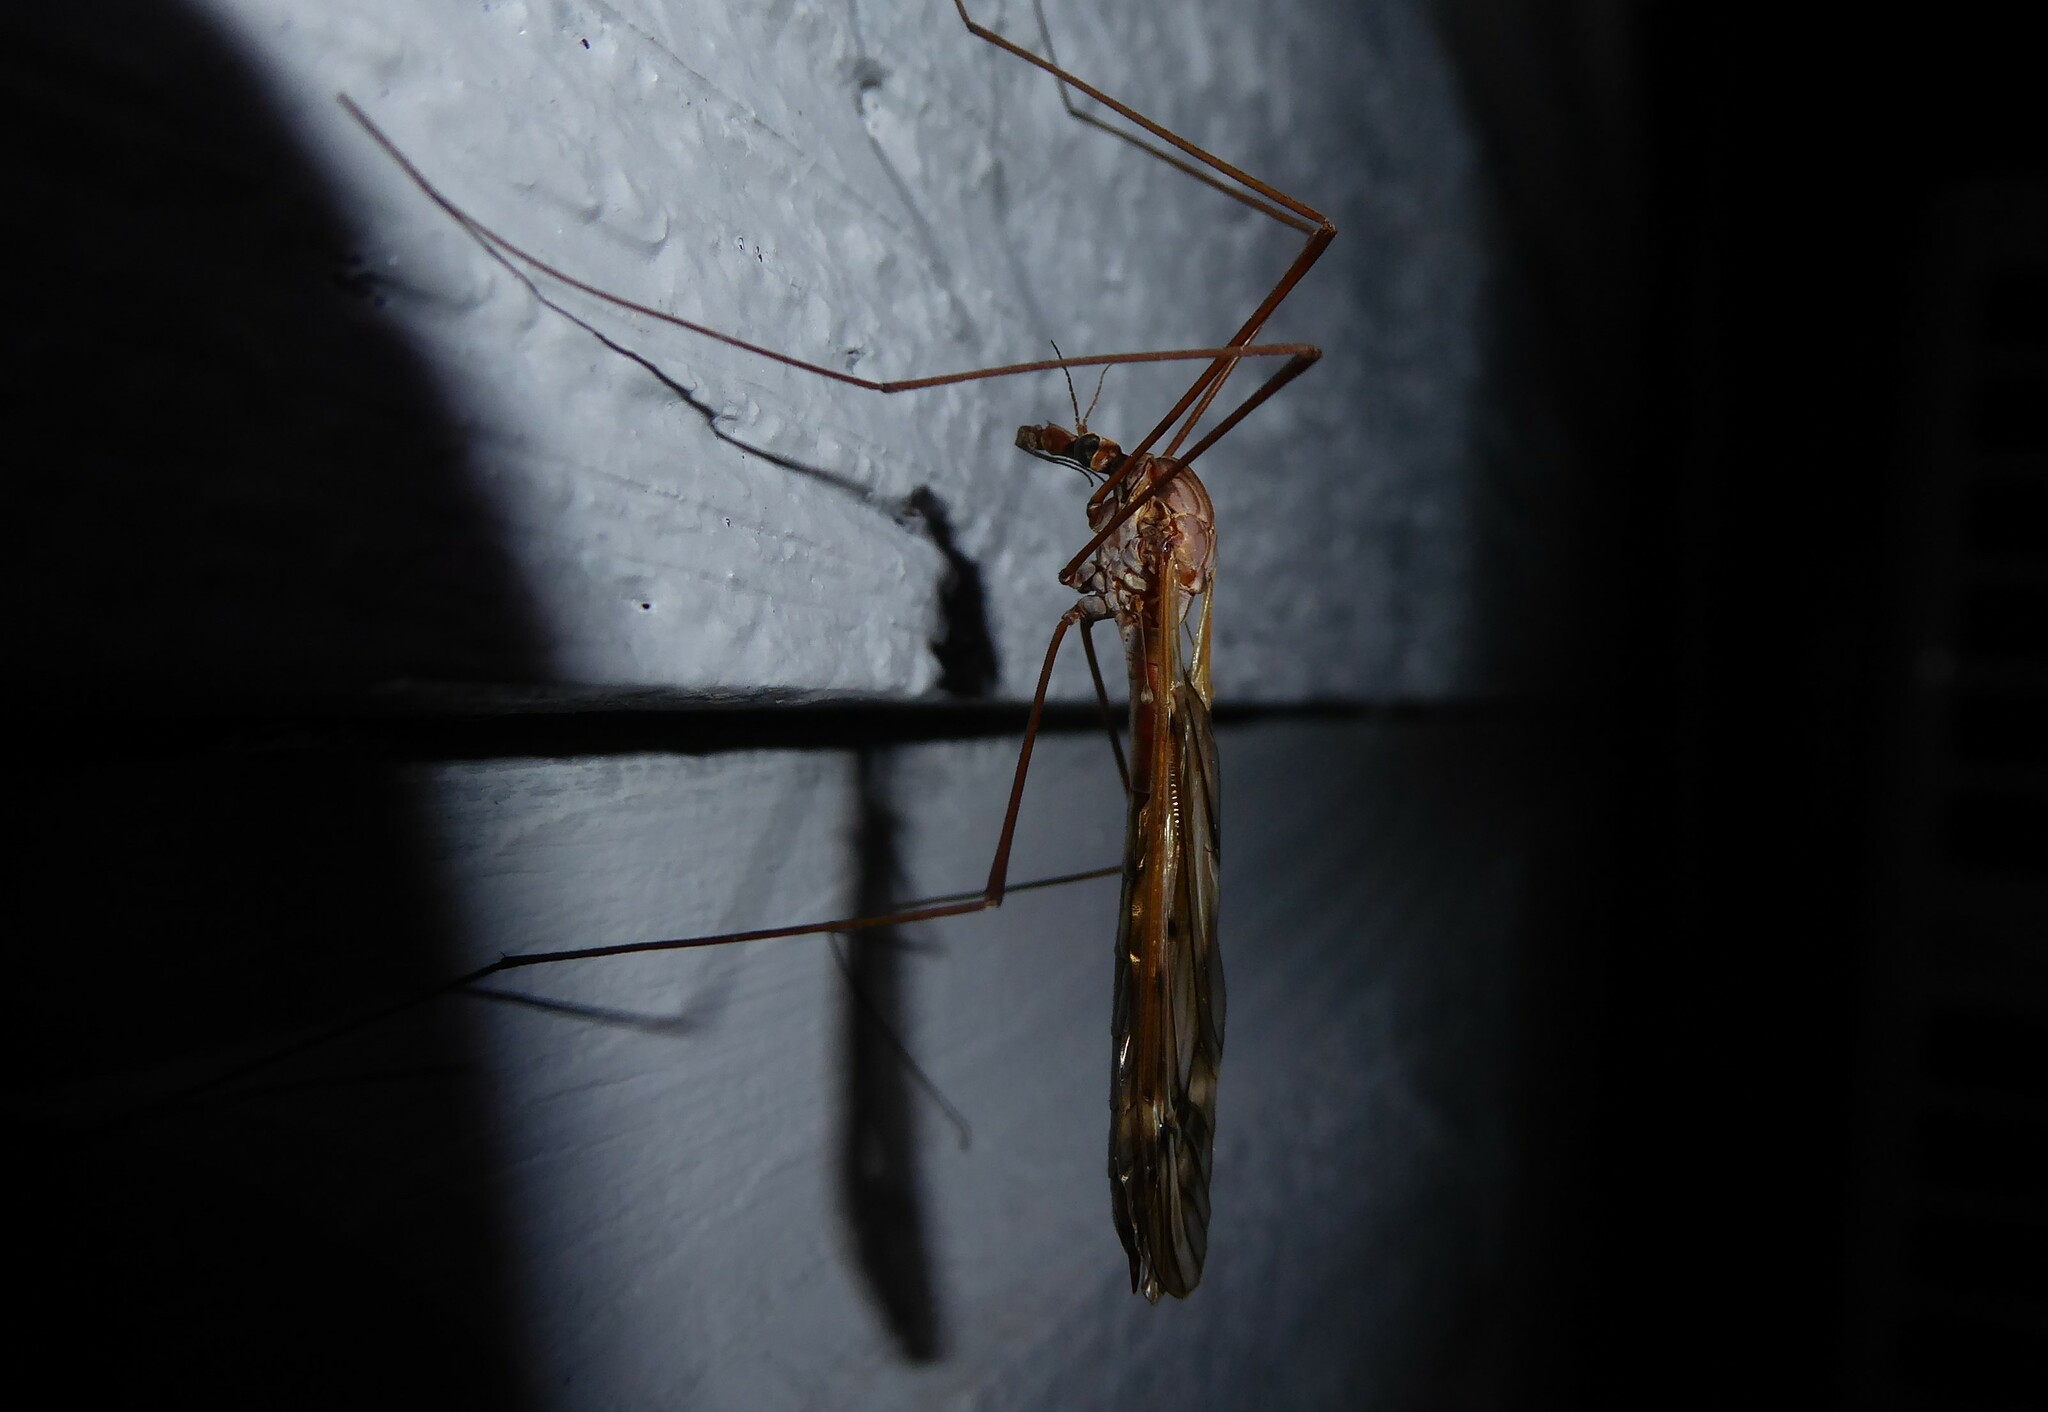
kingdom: Animalia
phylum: Arthropoda
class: Insecta
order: Diptera
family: Tipulidae
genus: Zelandotipula
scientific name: Zelandotipula novarae
